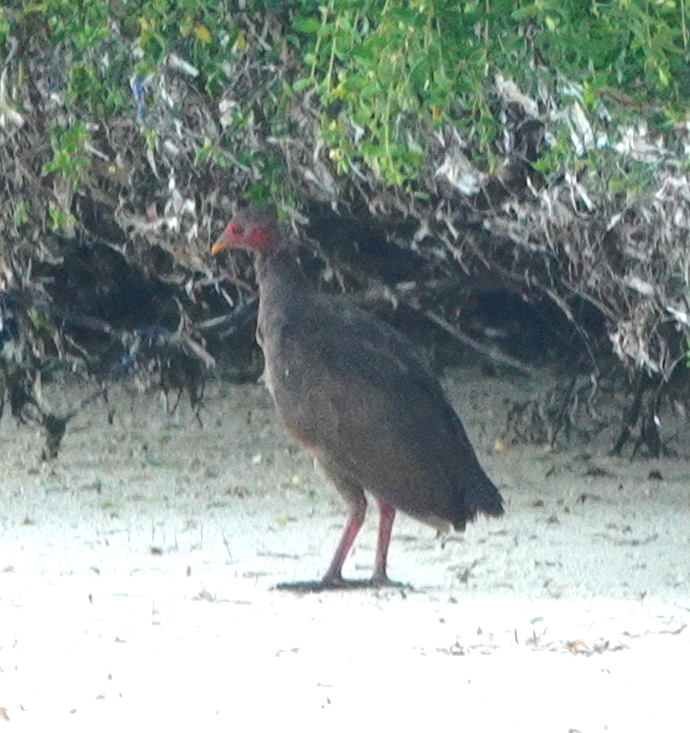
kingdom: Animalia
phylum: Chordata
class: Aves
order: Galliformes
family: Megapodiidae
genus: Megapodius
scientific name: Megapodius tenimberensis
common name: Tanimbar megapode
